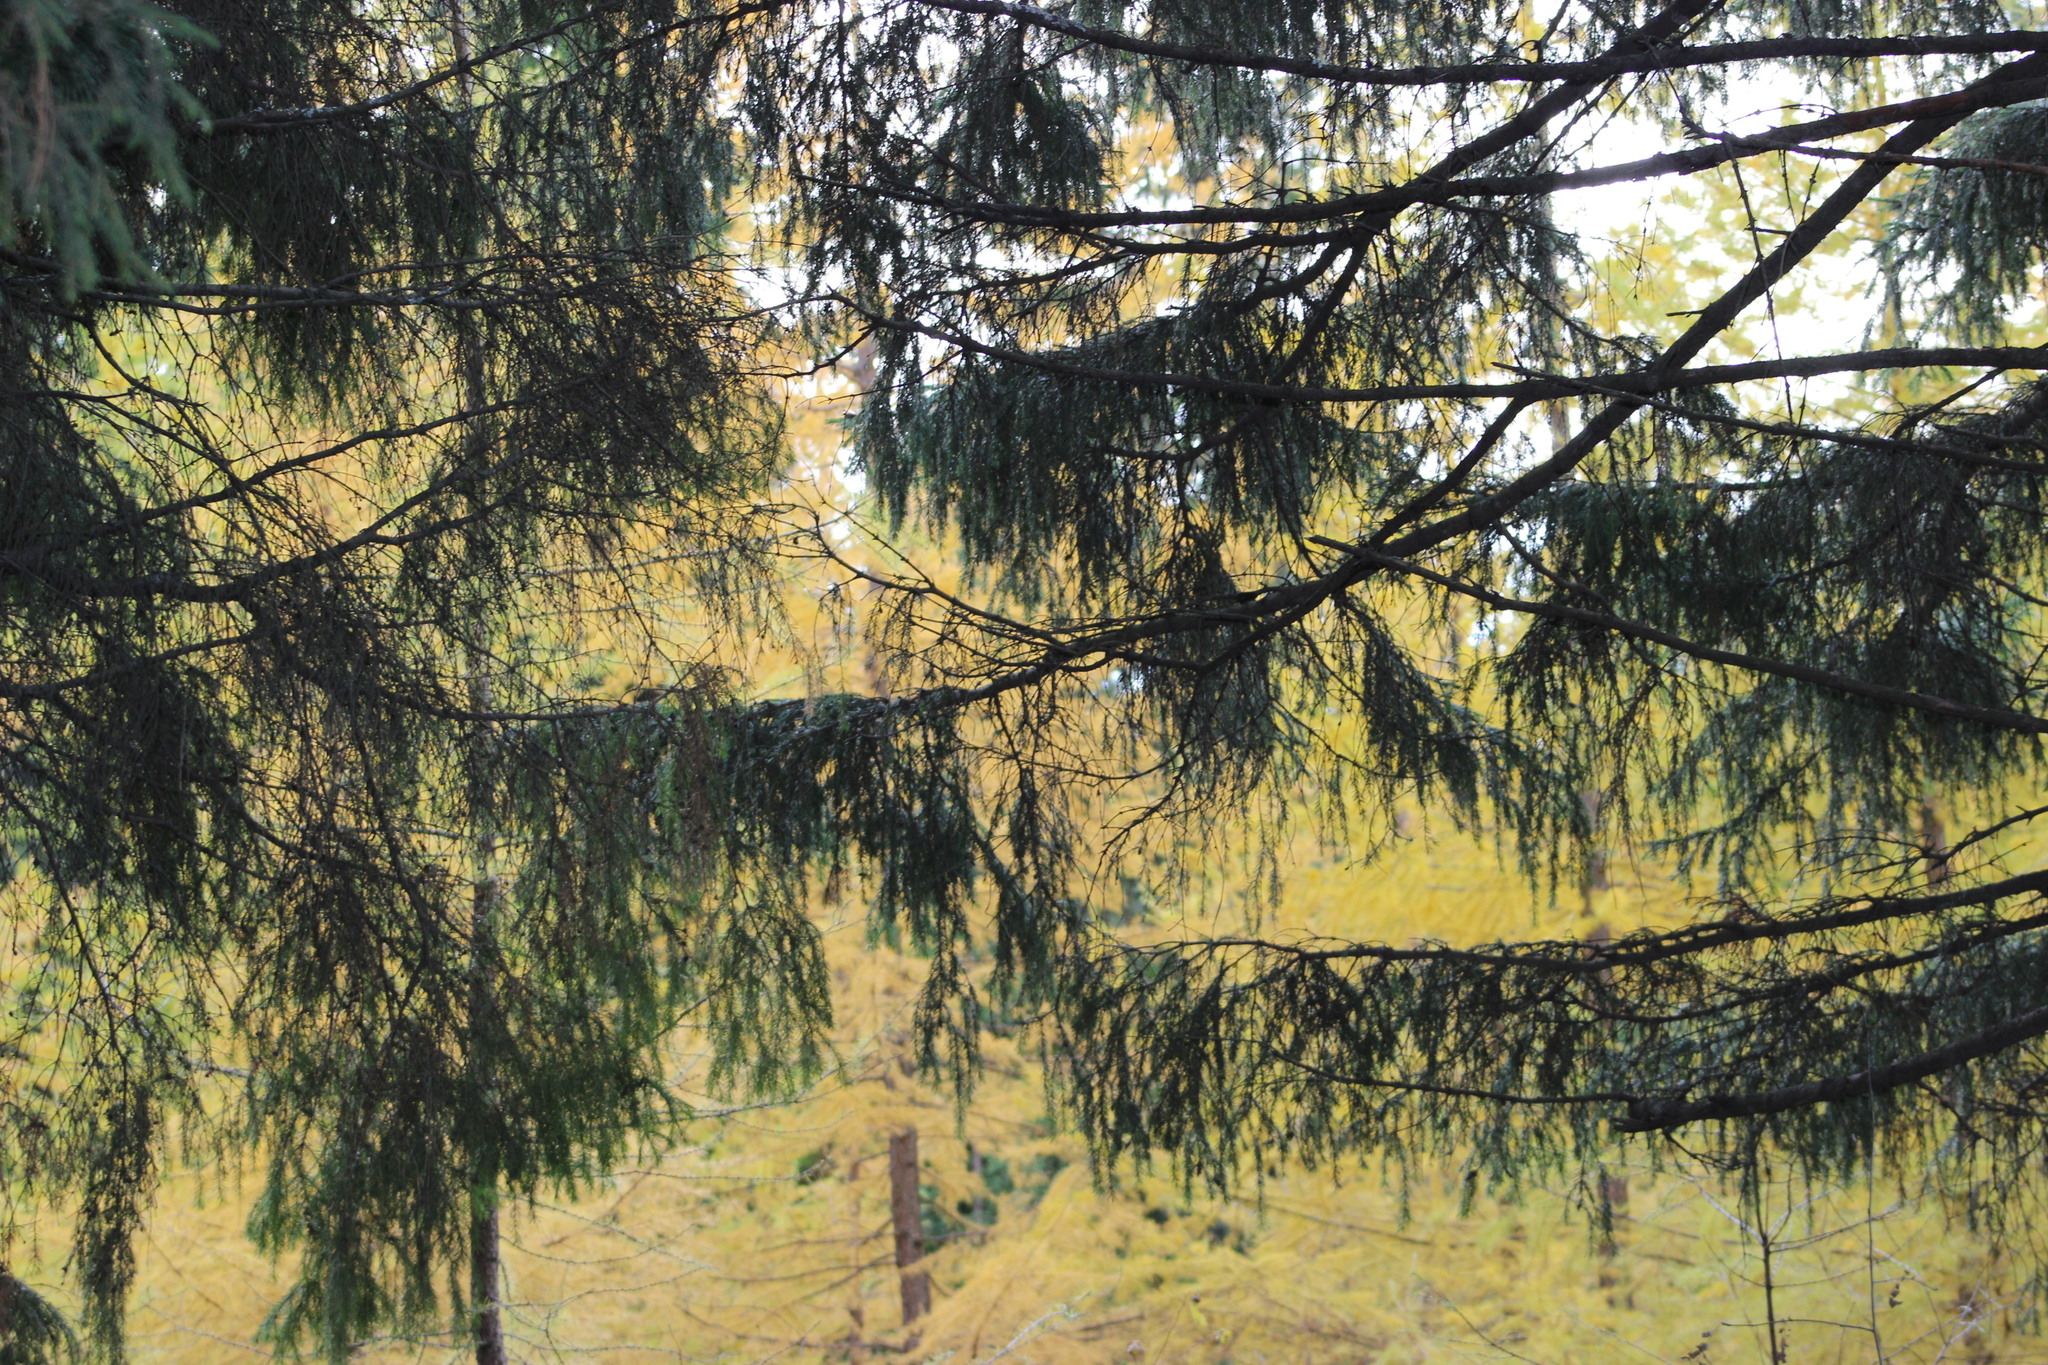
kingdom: Plantae
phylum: Tracheophyta
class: Pinopsida
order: Pinales
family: Pinaceae
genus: Picea
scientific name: Picea obovata
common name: Siberian spruce
